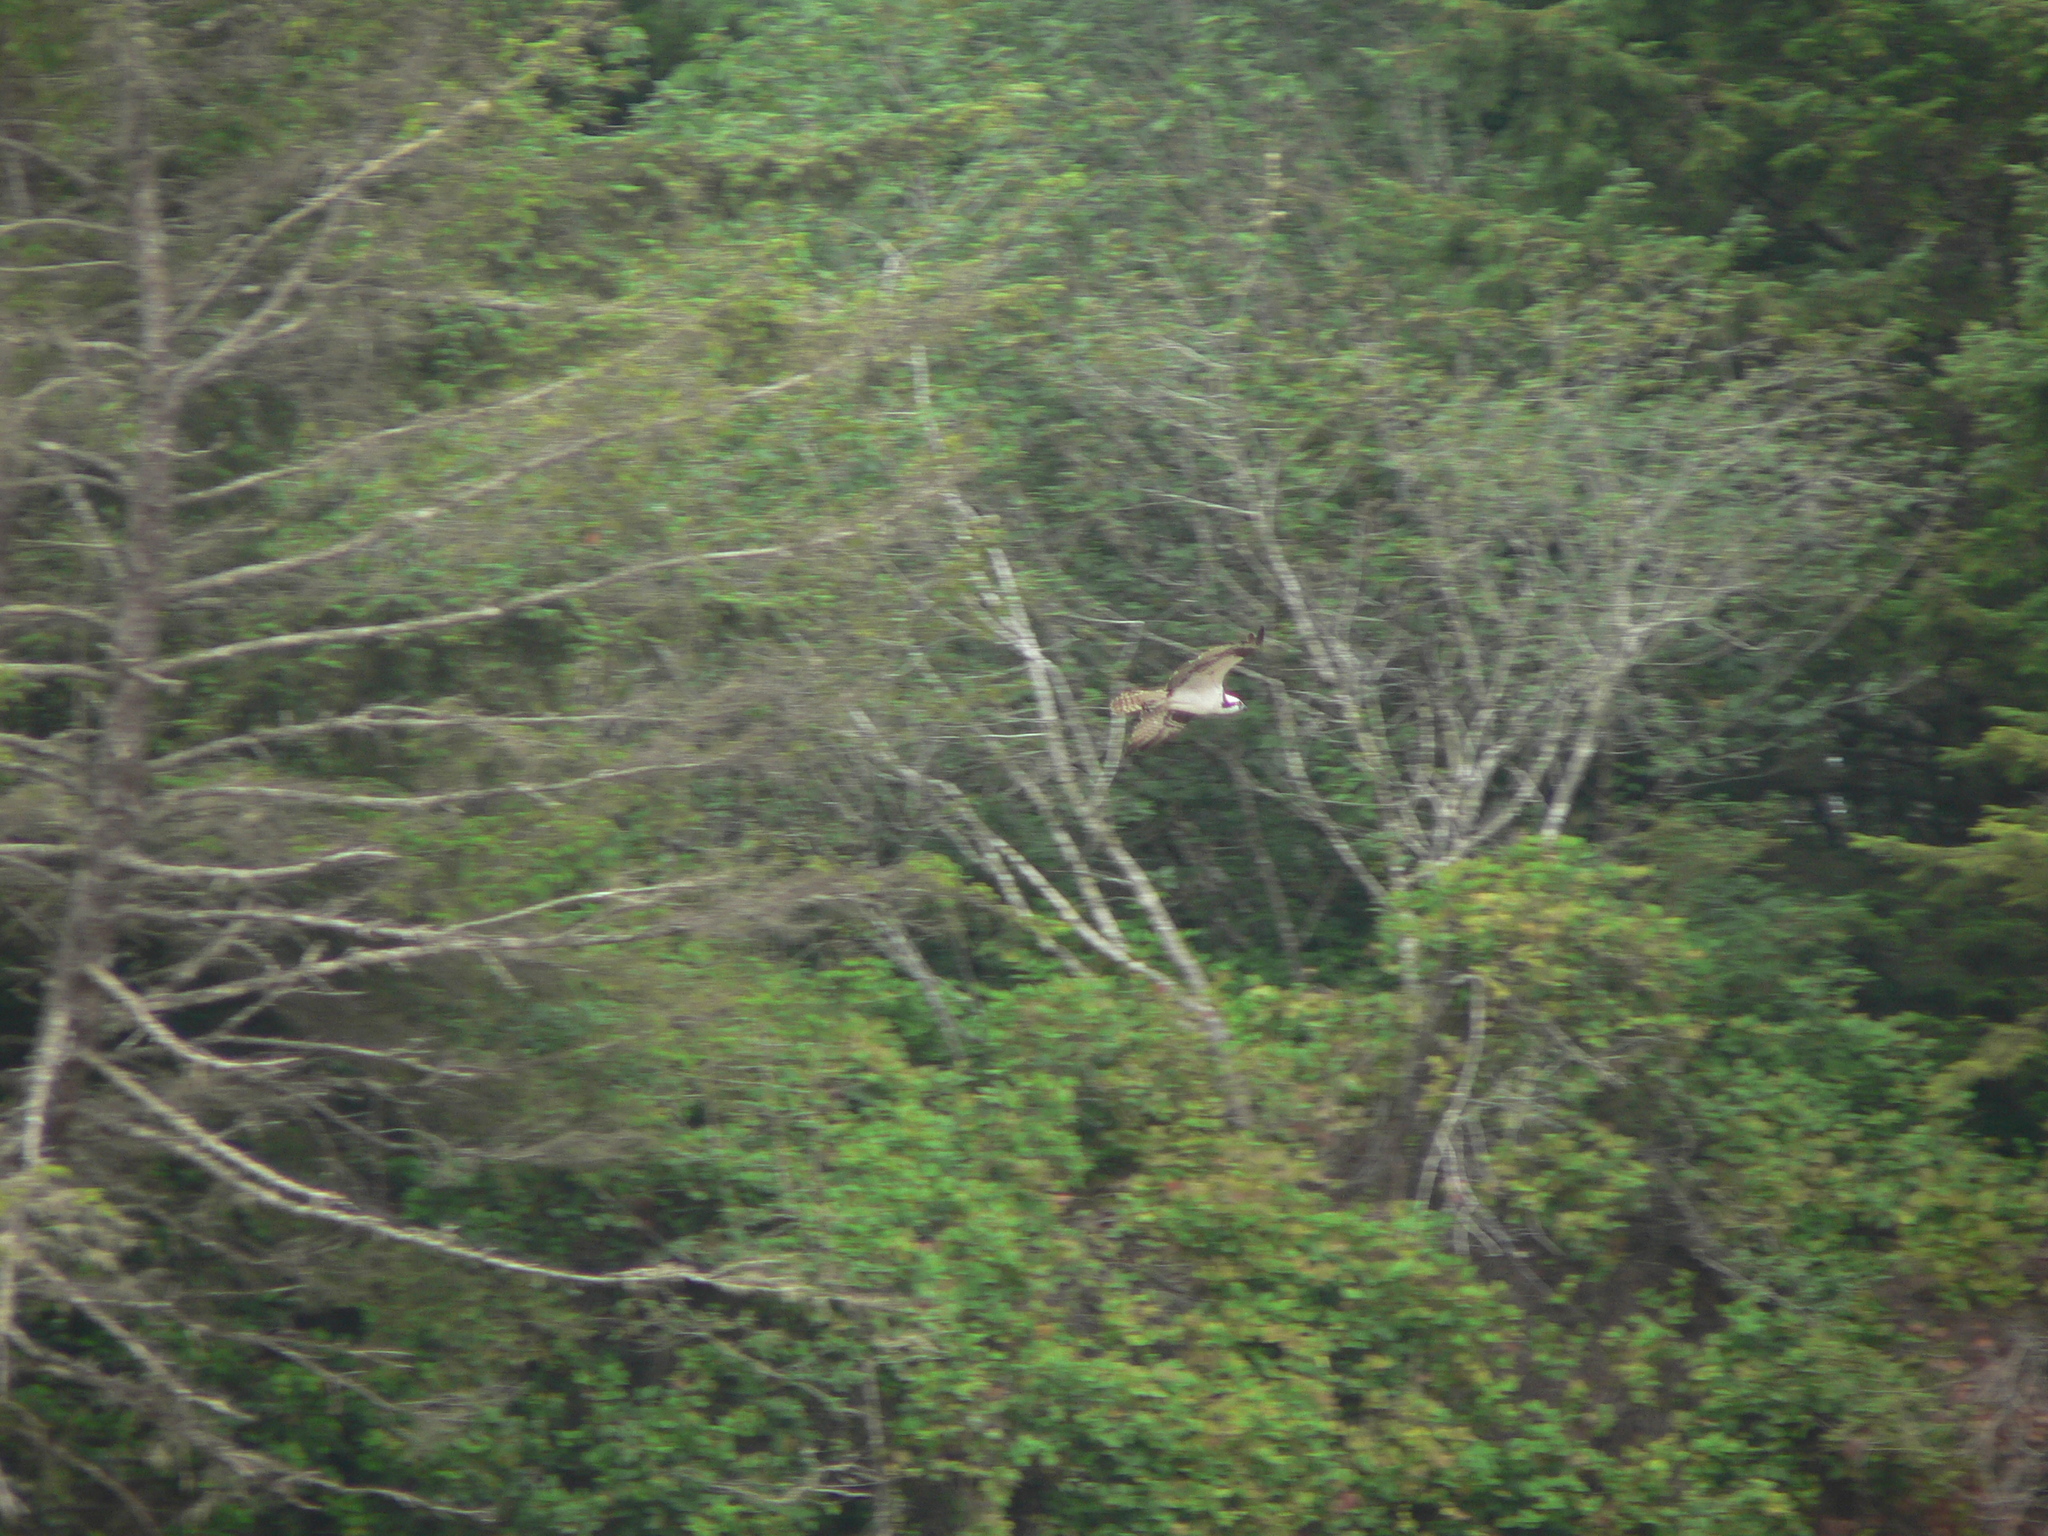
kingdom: Animalia
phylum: Chordata
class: Aves
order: Accipitriformes
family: Pandionidae
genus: Pandion
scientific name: Pandion haliaetus
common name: Osprey
